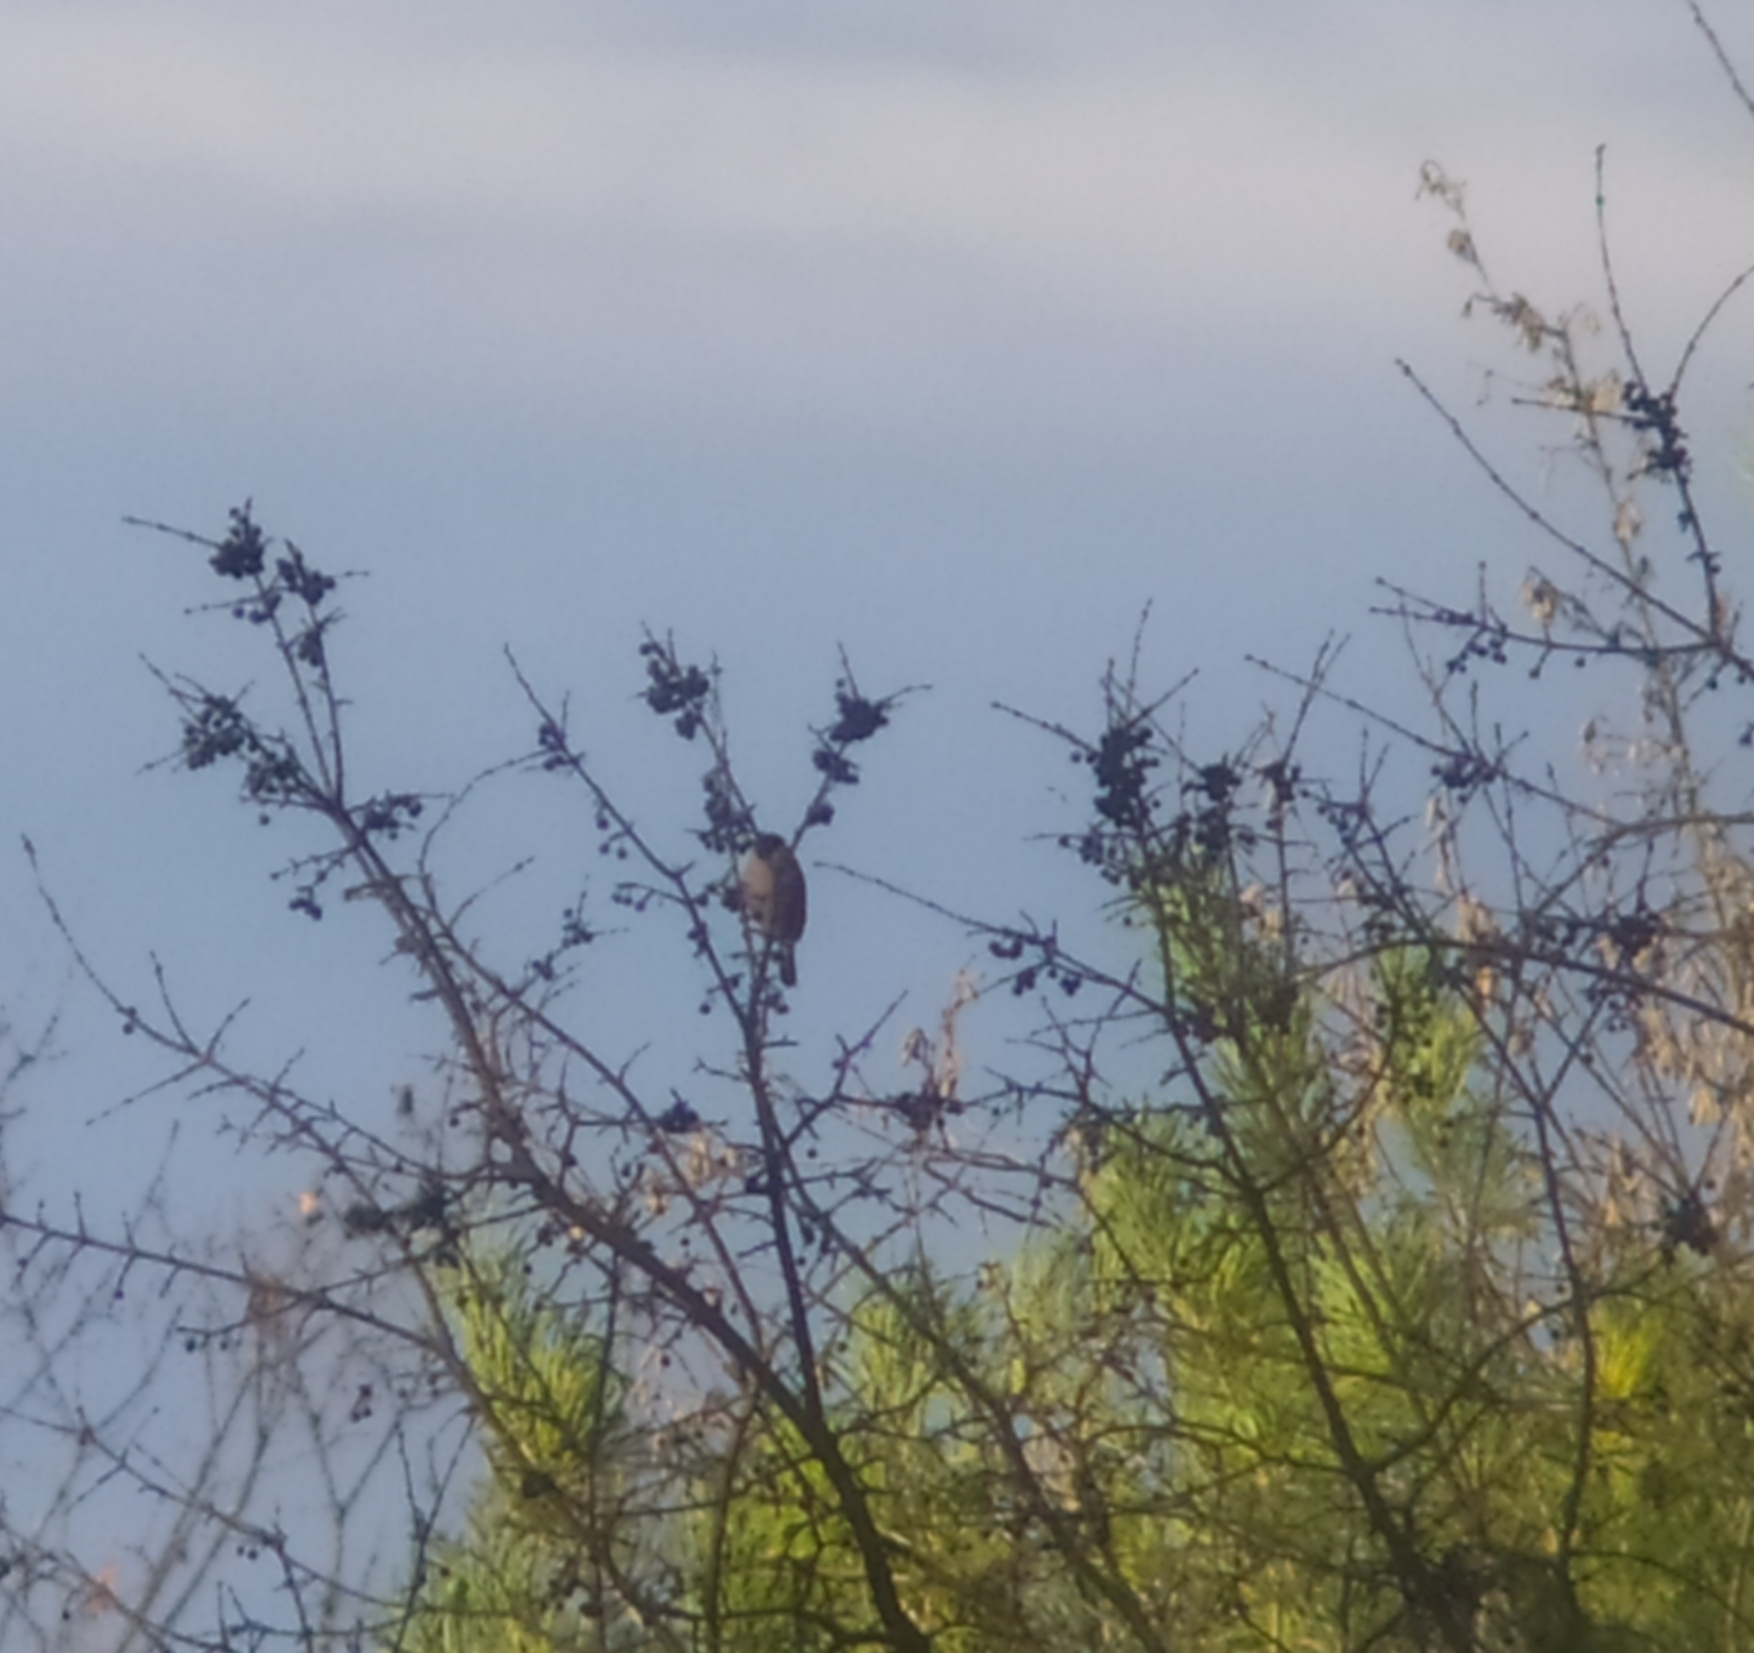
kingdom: Animalia
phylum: Chordata
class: Aves
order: Passeriformes
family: Fringillidae
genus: Pyrrhula
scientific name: Pyrrhula pyrrhula
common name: Eurasian bullfinch
